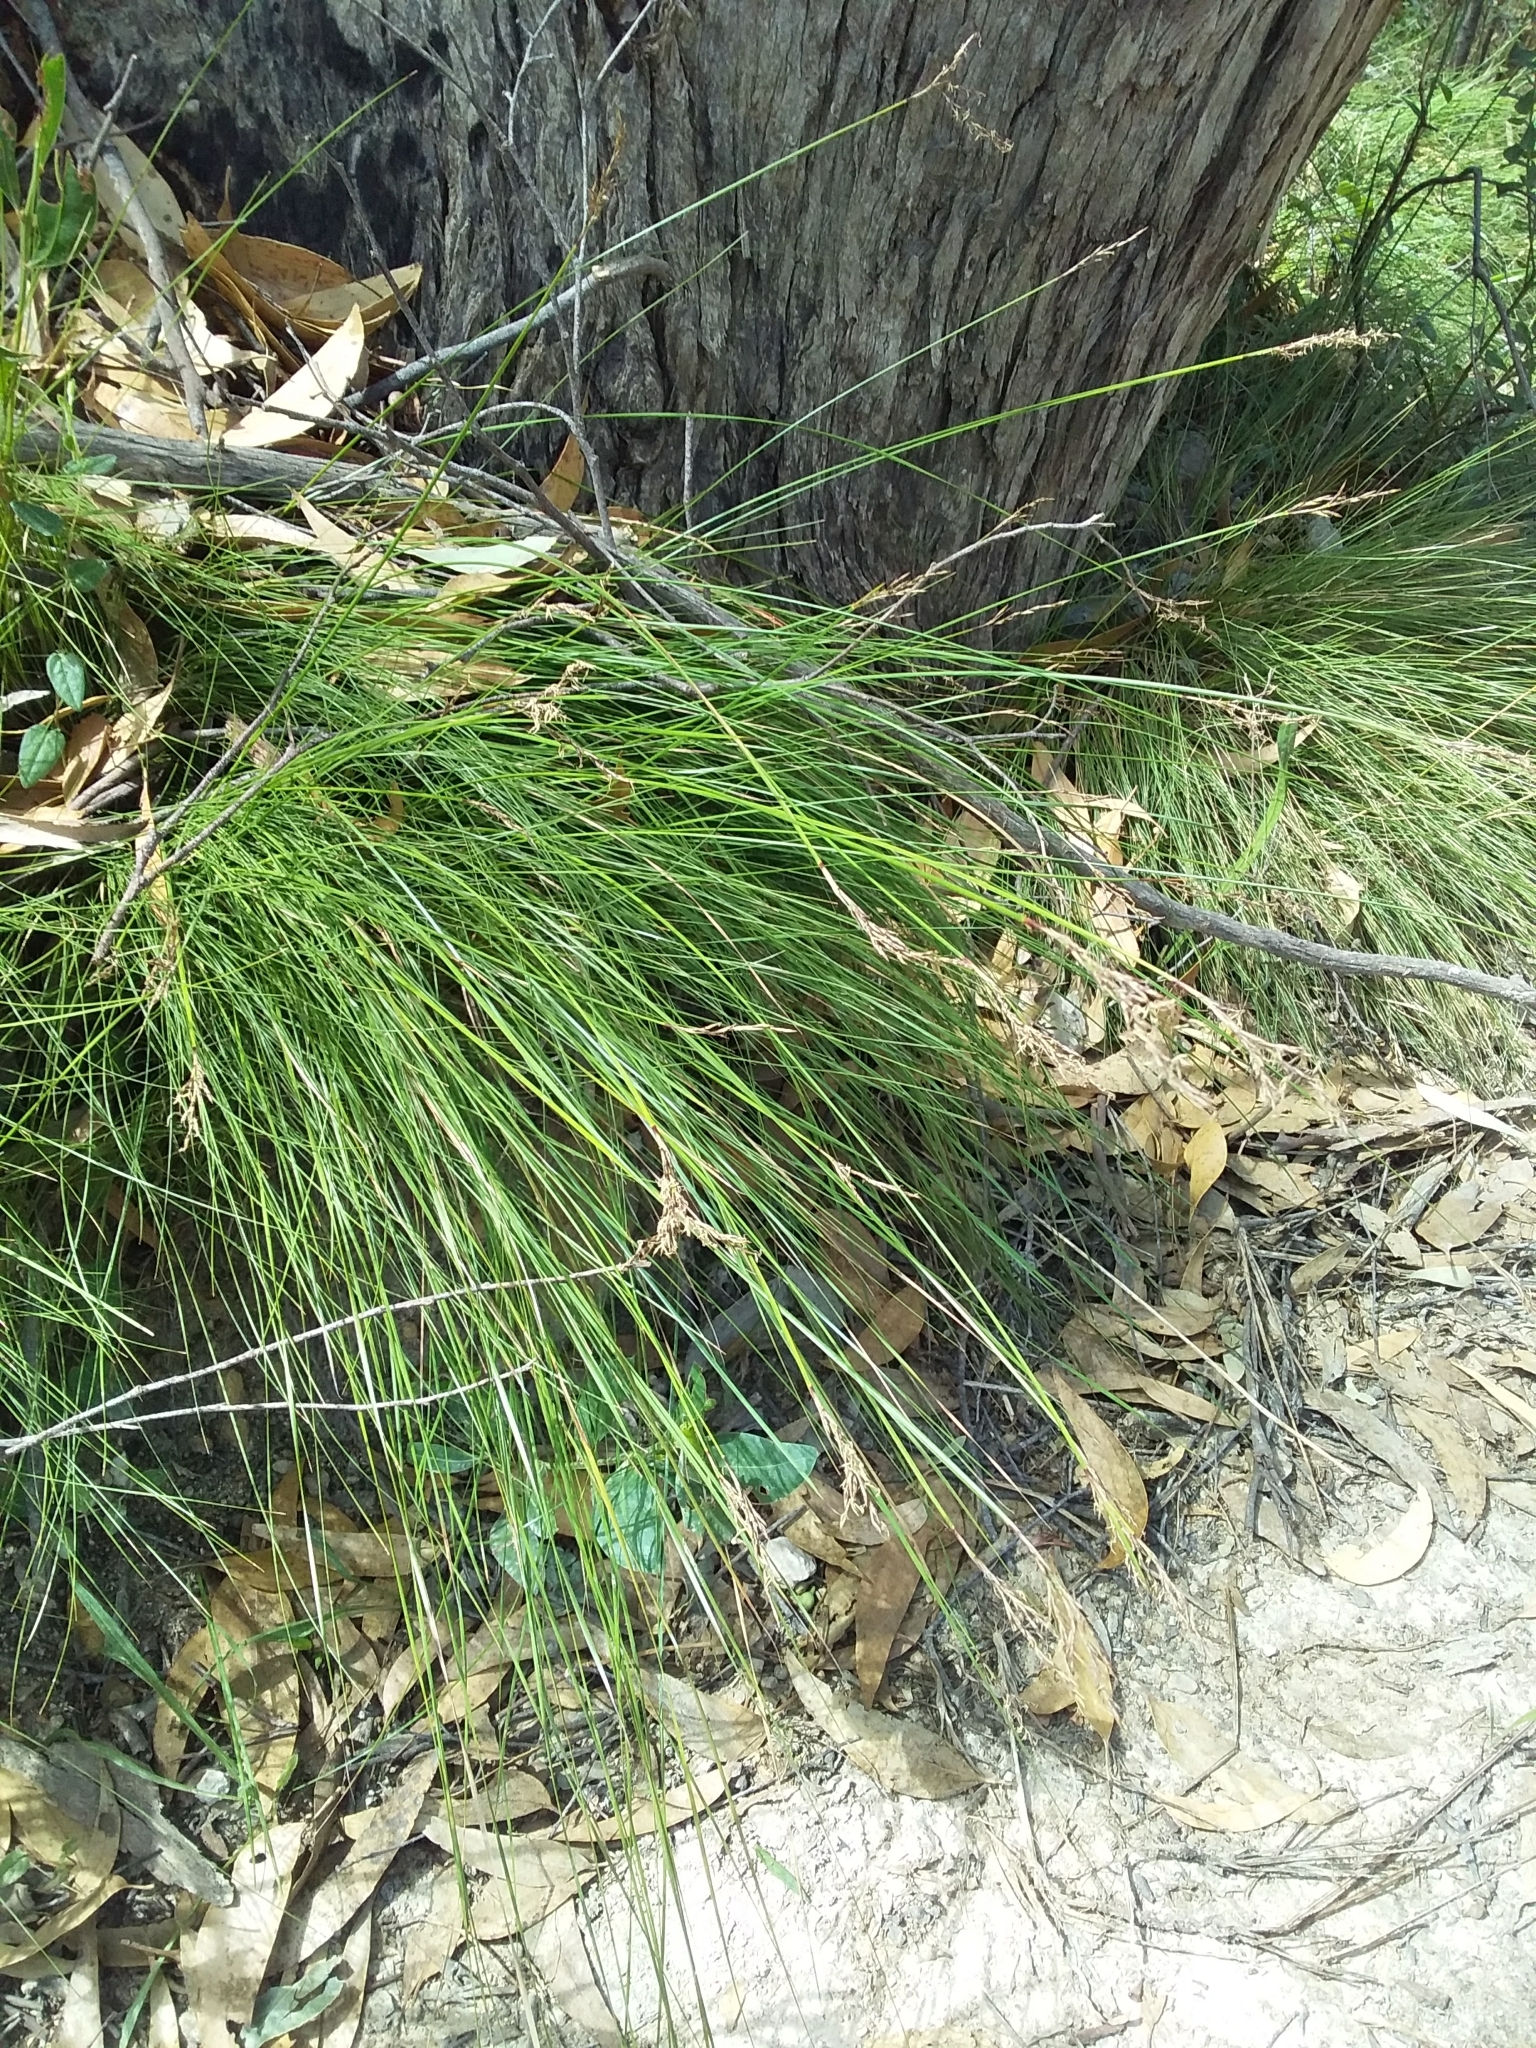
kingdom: Plantae
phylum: Tracheophyta
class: Liliopsida
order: Poales
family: Cyperaceae
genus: Lepidosperma
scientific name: Lepidosperma semiteres
